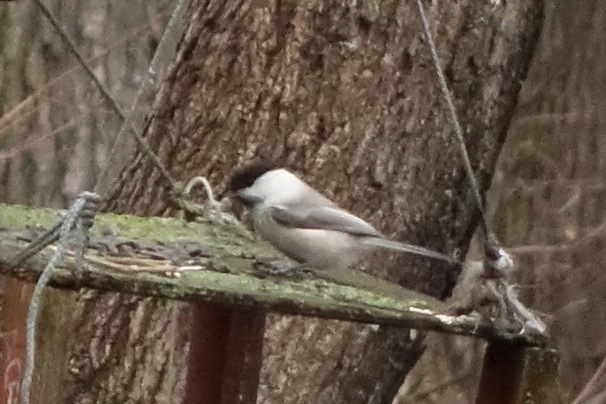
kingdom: Animalia
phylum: Chordata
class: Aves
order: Passeriformes
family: Paridae
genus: Poecile
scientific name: Poecile montanus
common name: Willow tit
